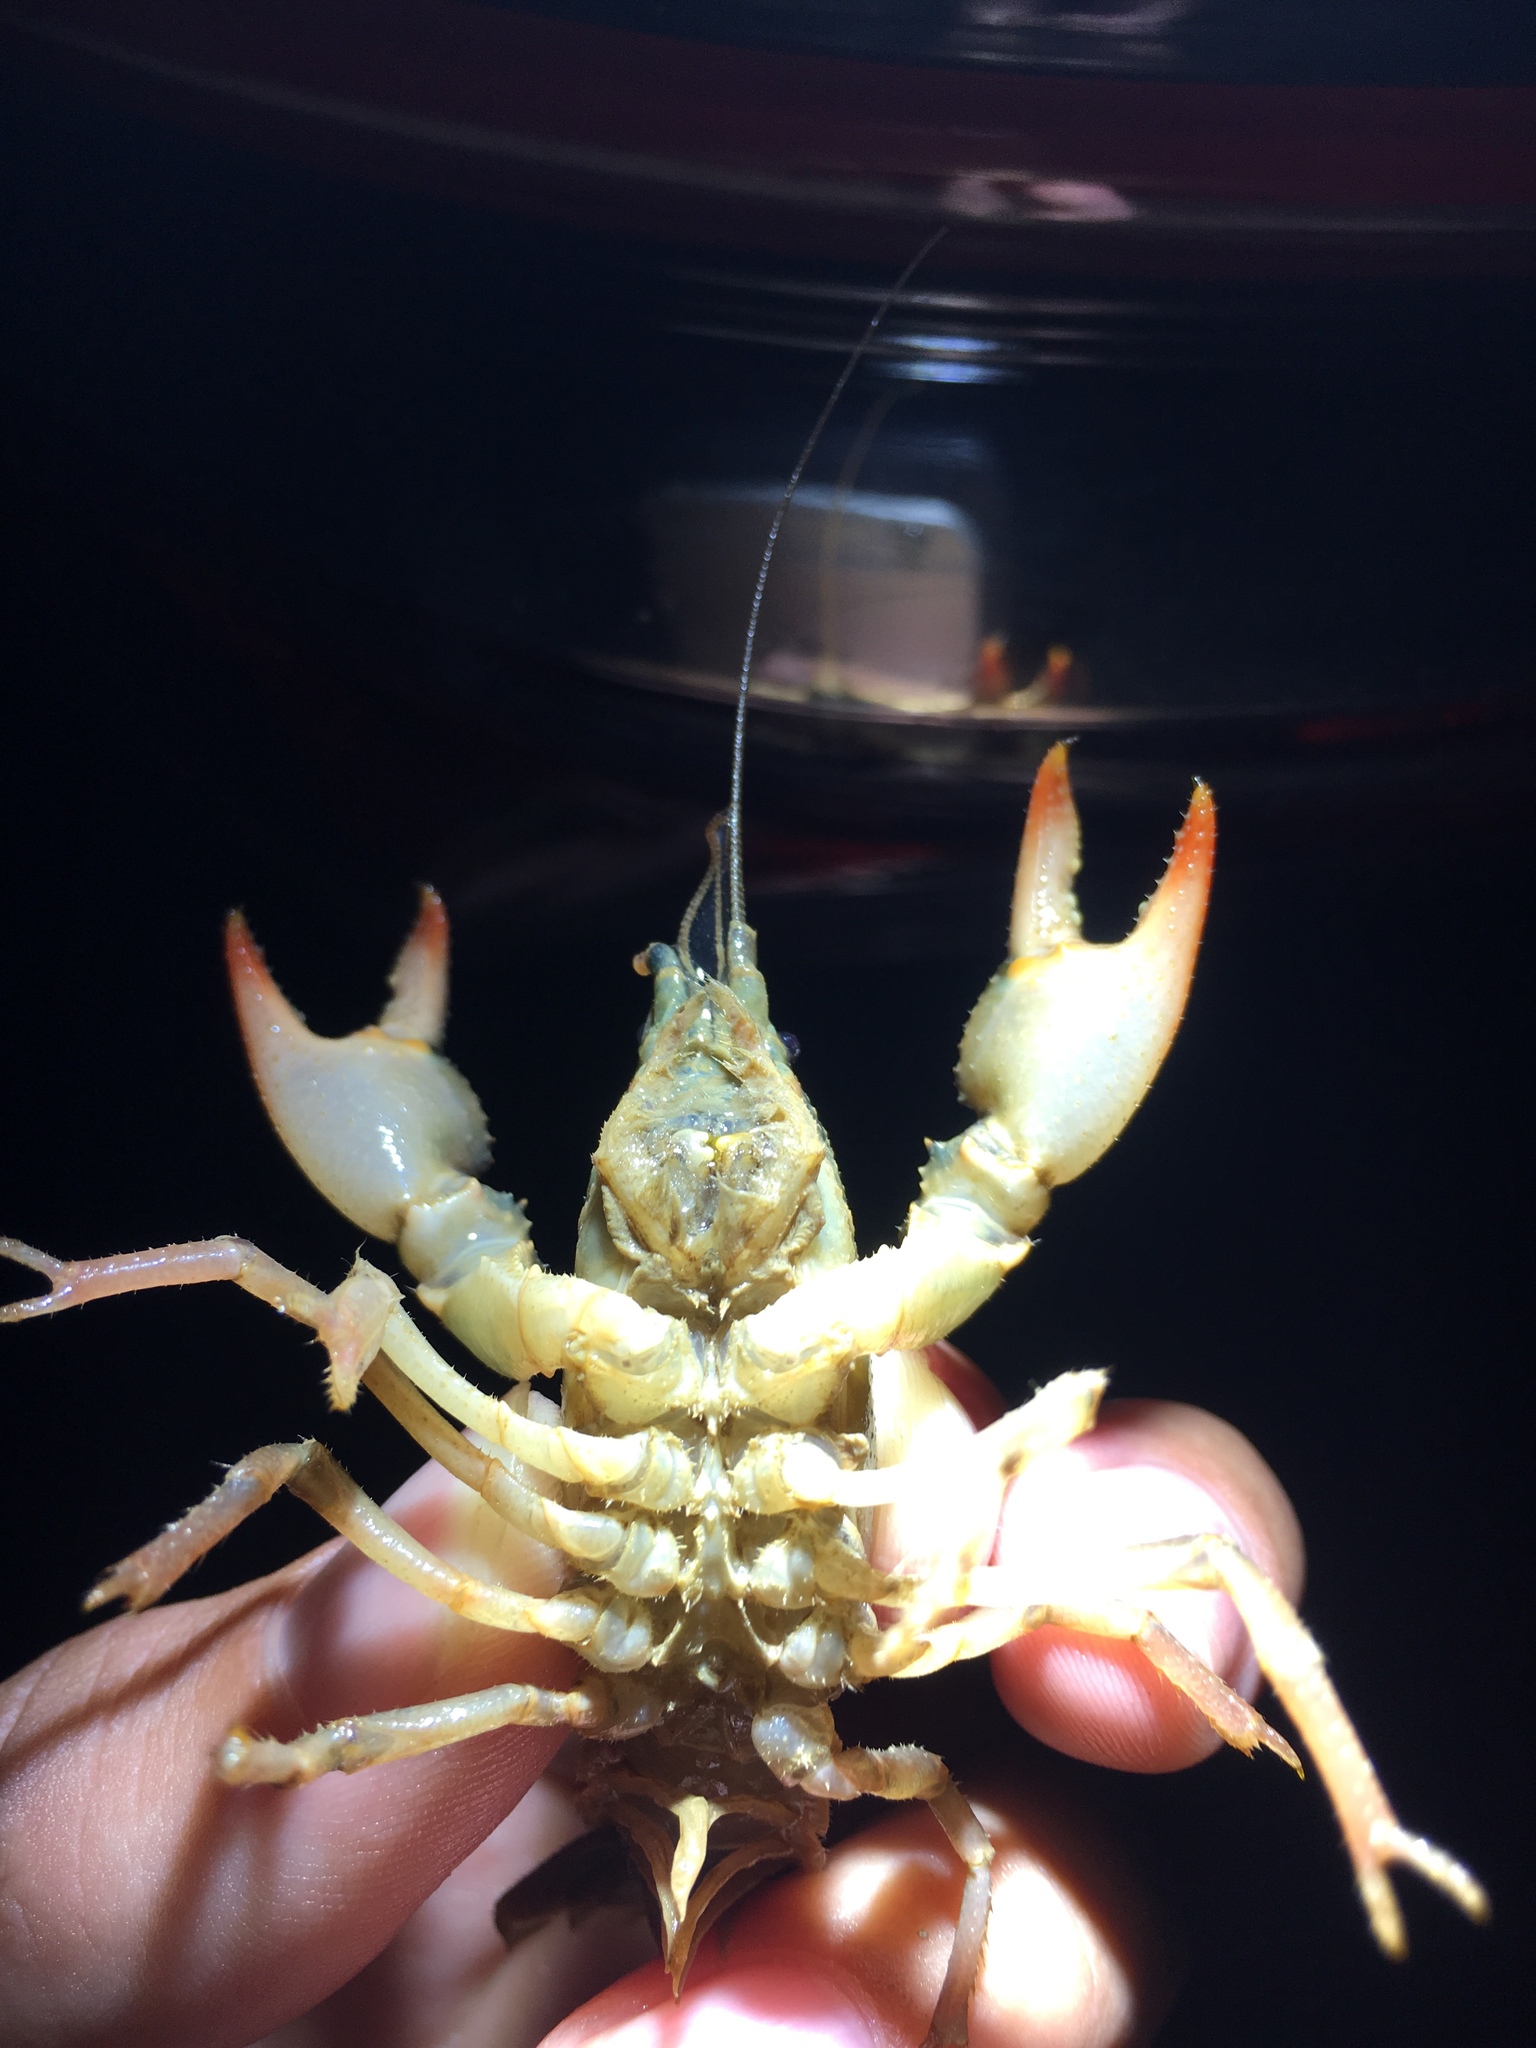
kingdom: Animalia
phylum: Arthropoda
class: Malacostraca
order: Decapoda
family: Cambaridae
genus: Lacunicambarus
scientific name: Lacunicambarus diogenes
